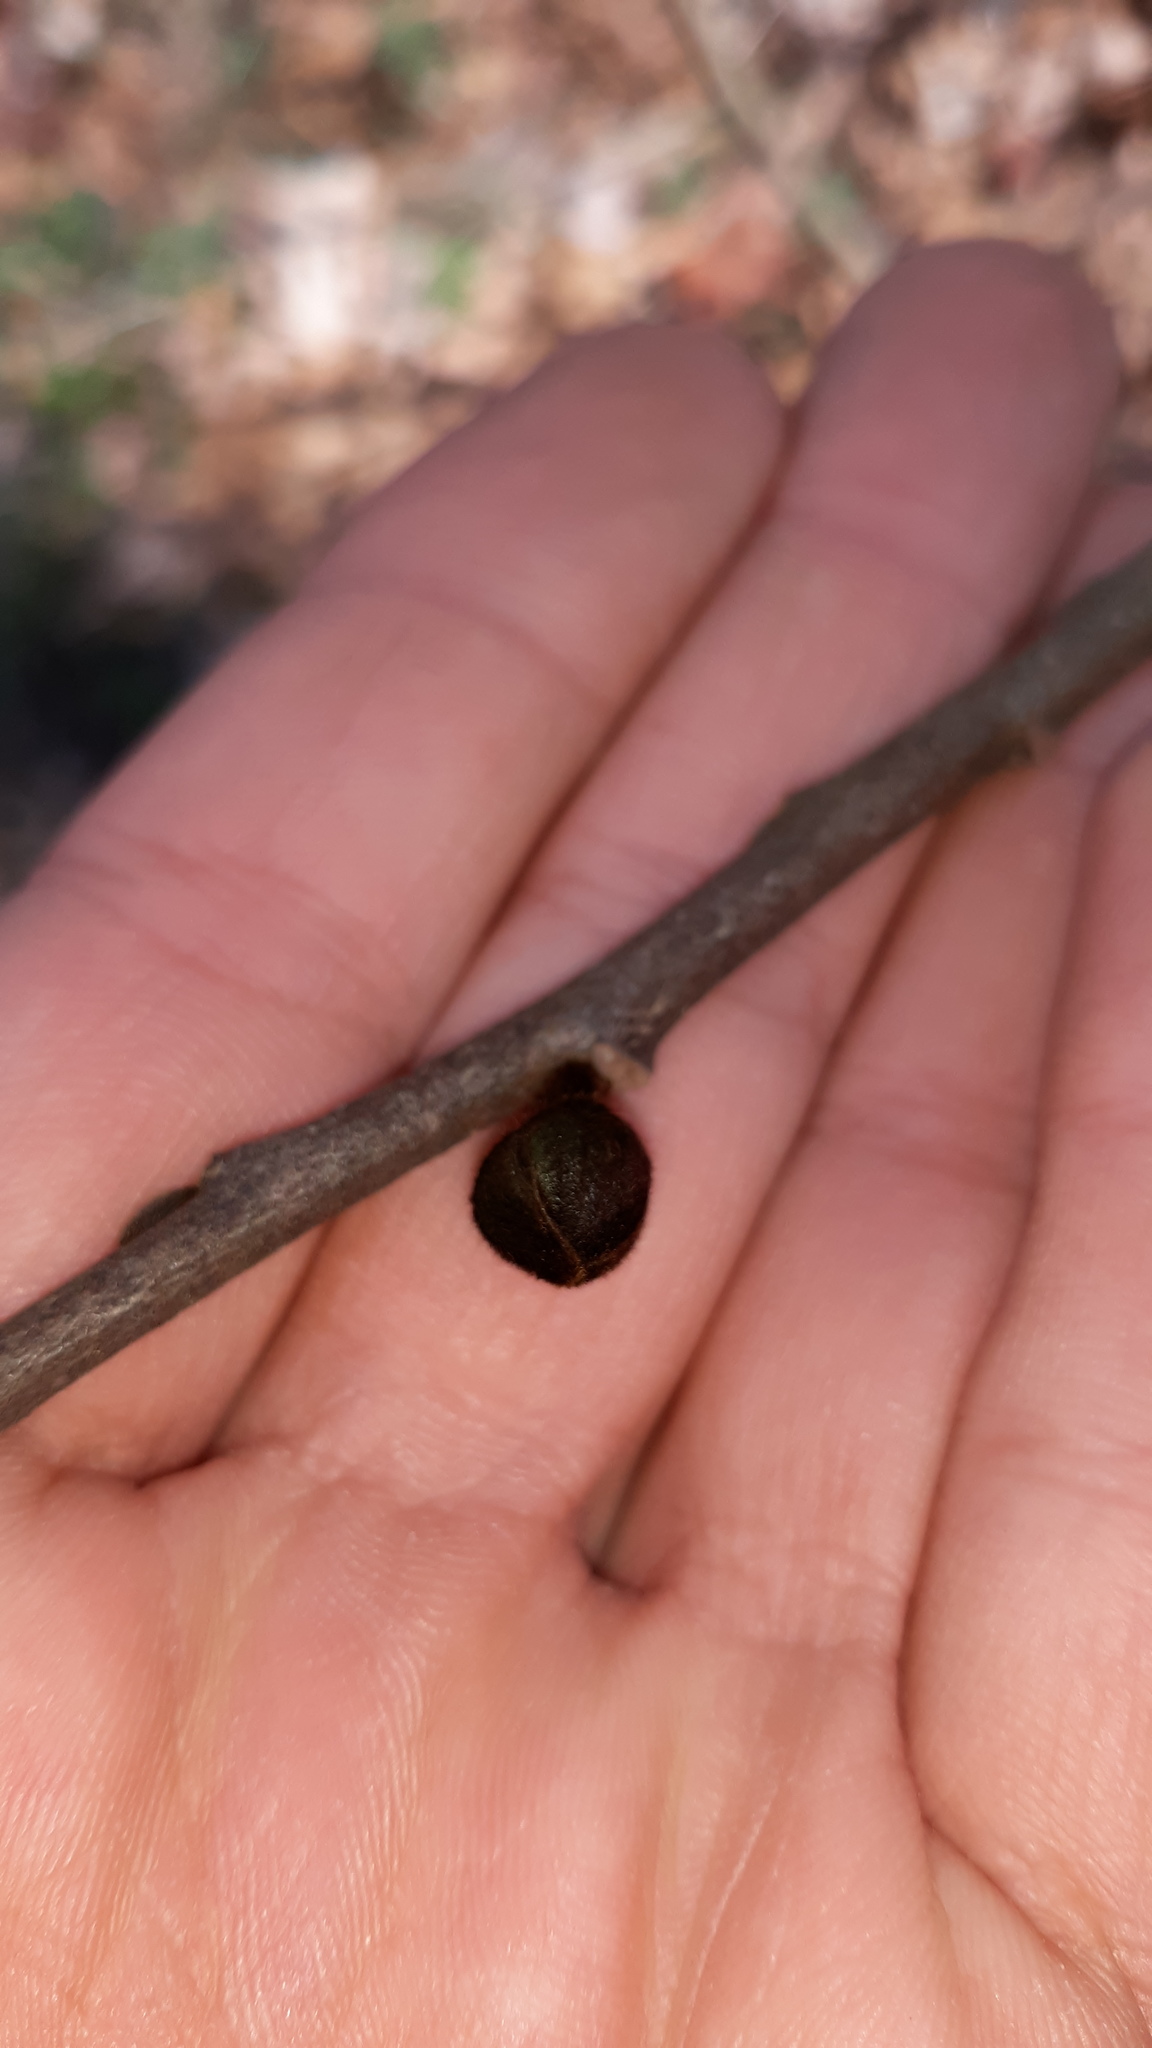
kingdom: Plantae
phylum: Tracheophyta
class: Magnoliopsida
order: Magnoliales
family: Annonaceae
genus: Asimina
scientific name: Asimina triloba
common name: Dog-banana
